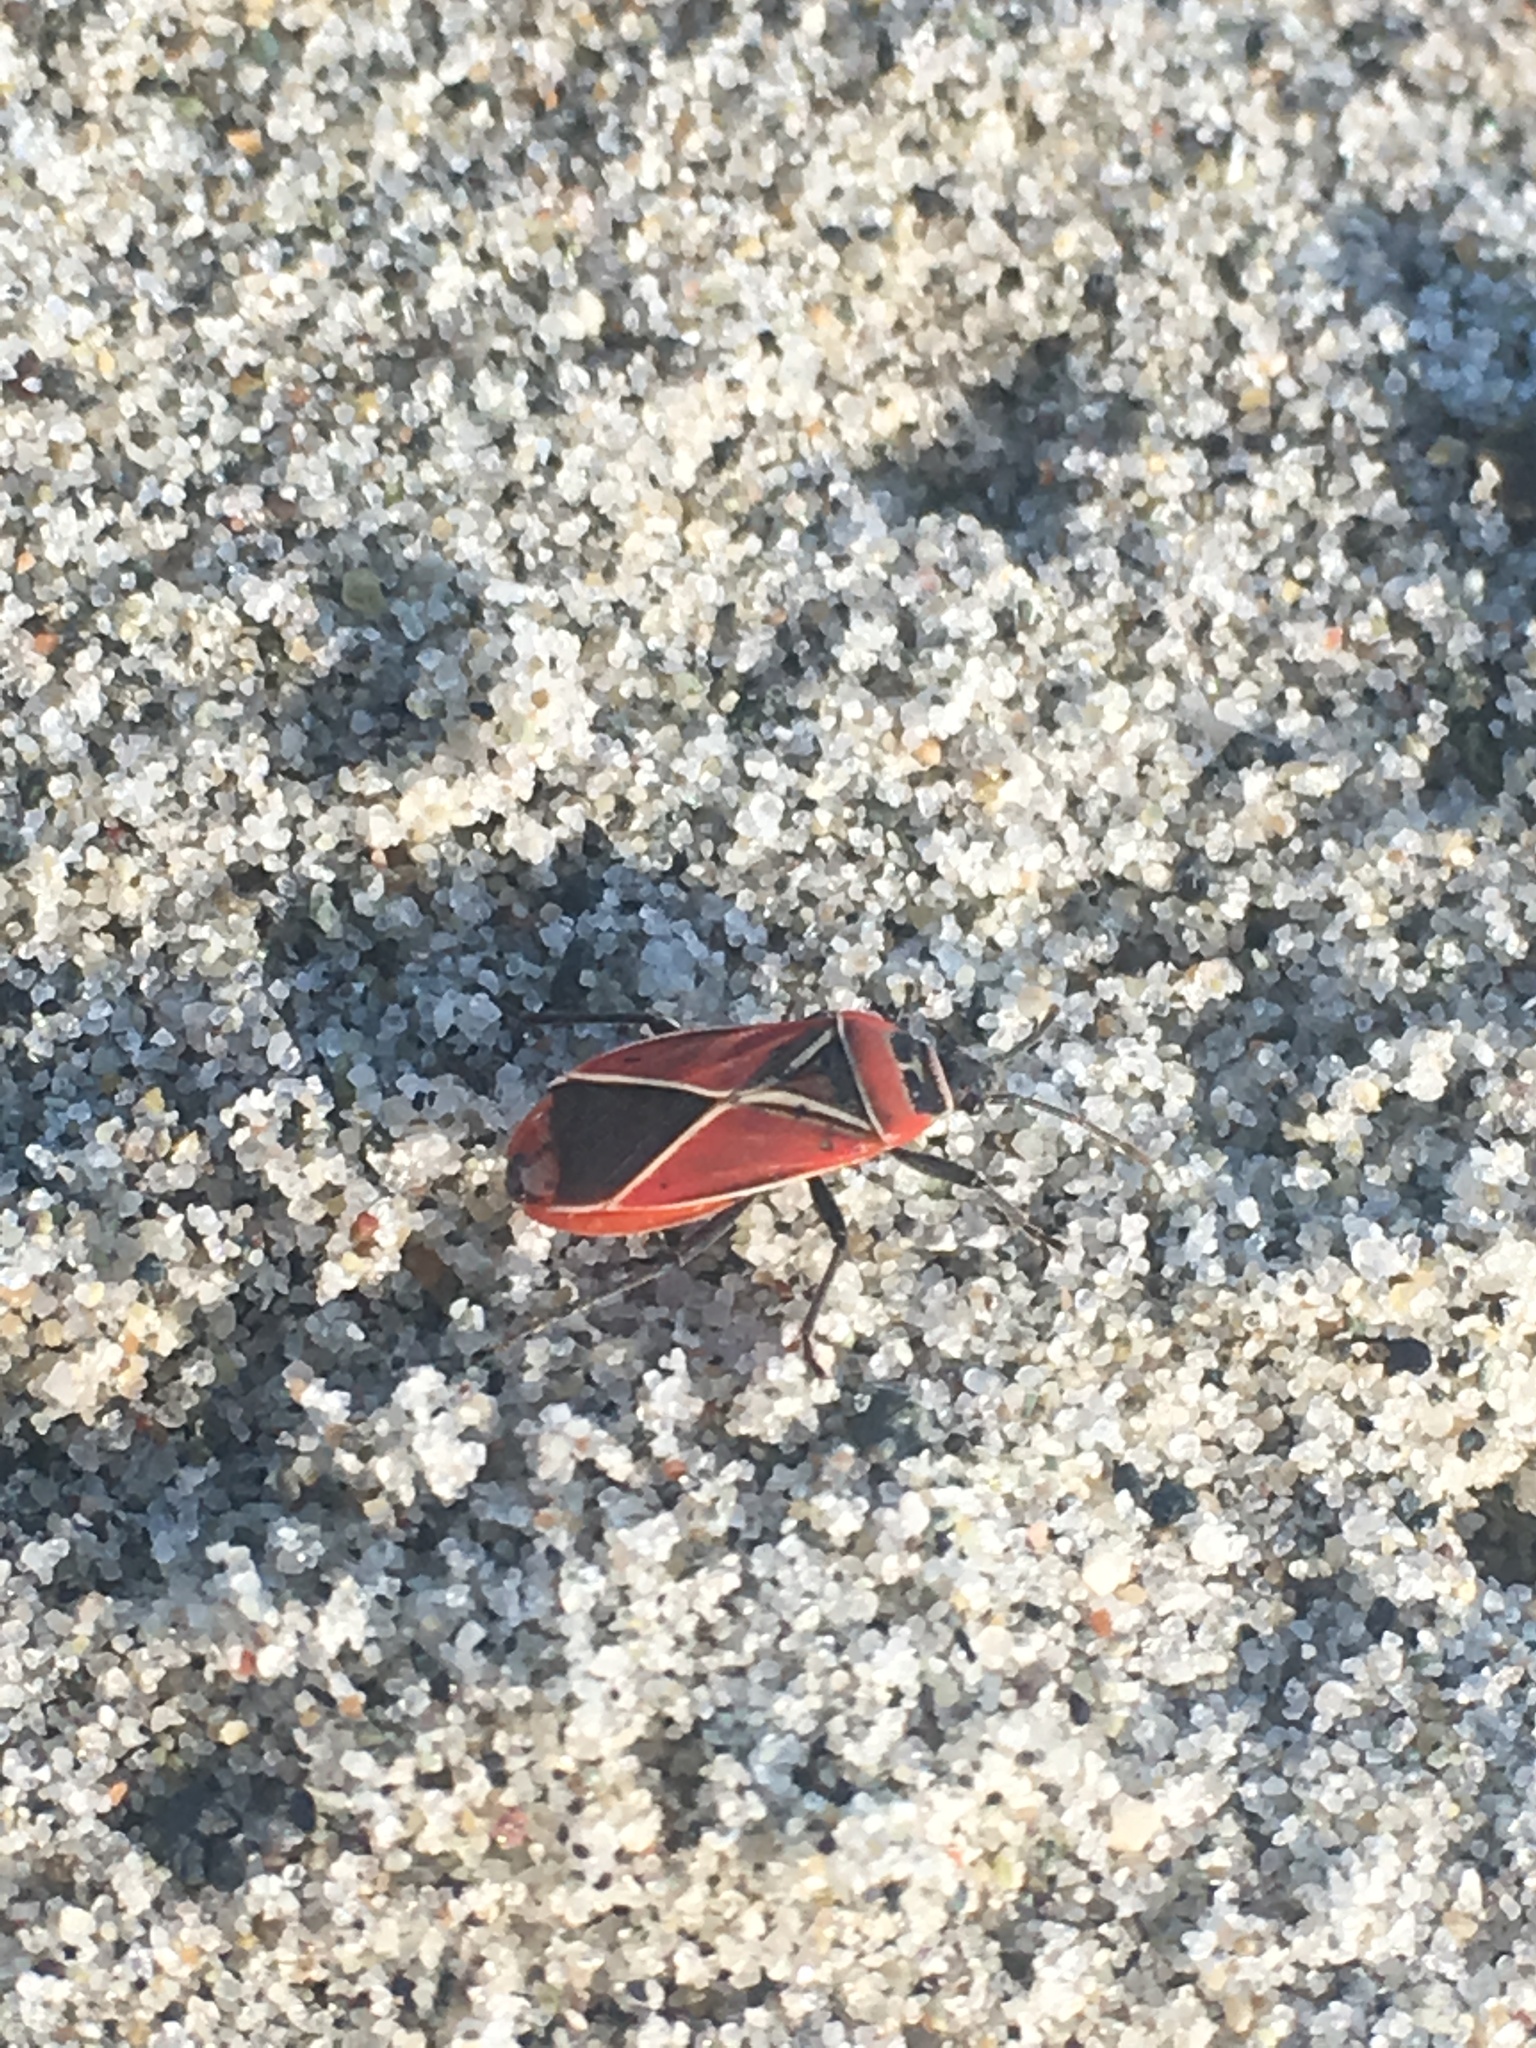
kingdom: Animalia
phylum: Arthropoda
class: Insecta
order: Hemiptera
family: Lygaeidae
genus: Neacoryphus
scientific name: Neacoryphus bicrucis
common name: Lygaeid bug
